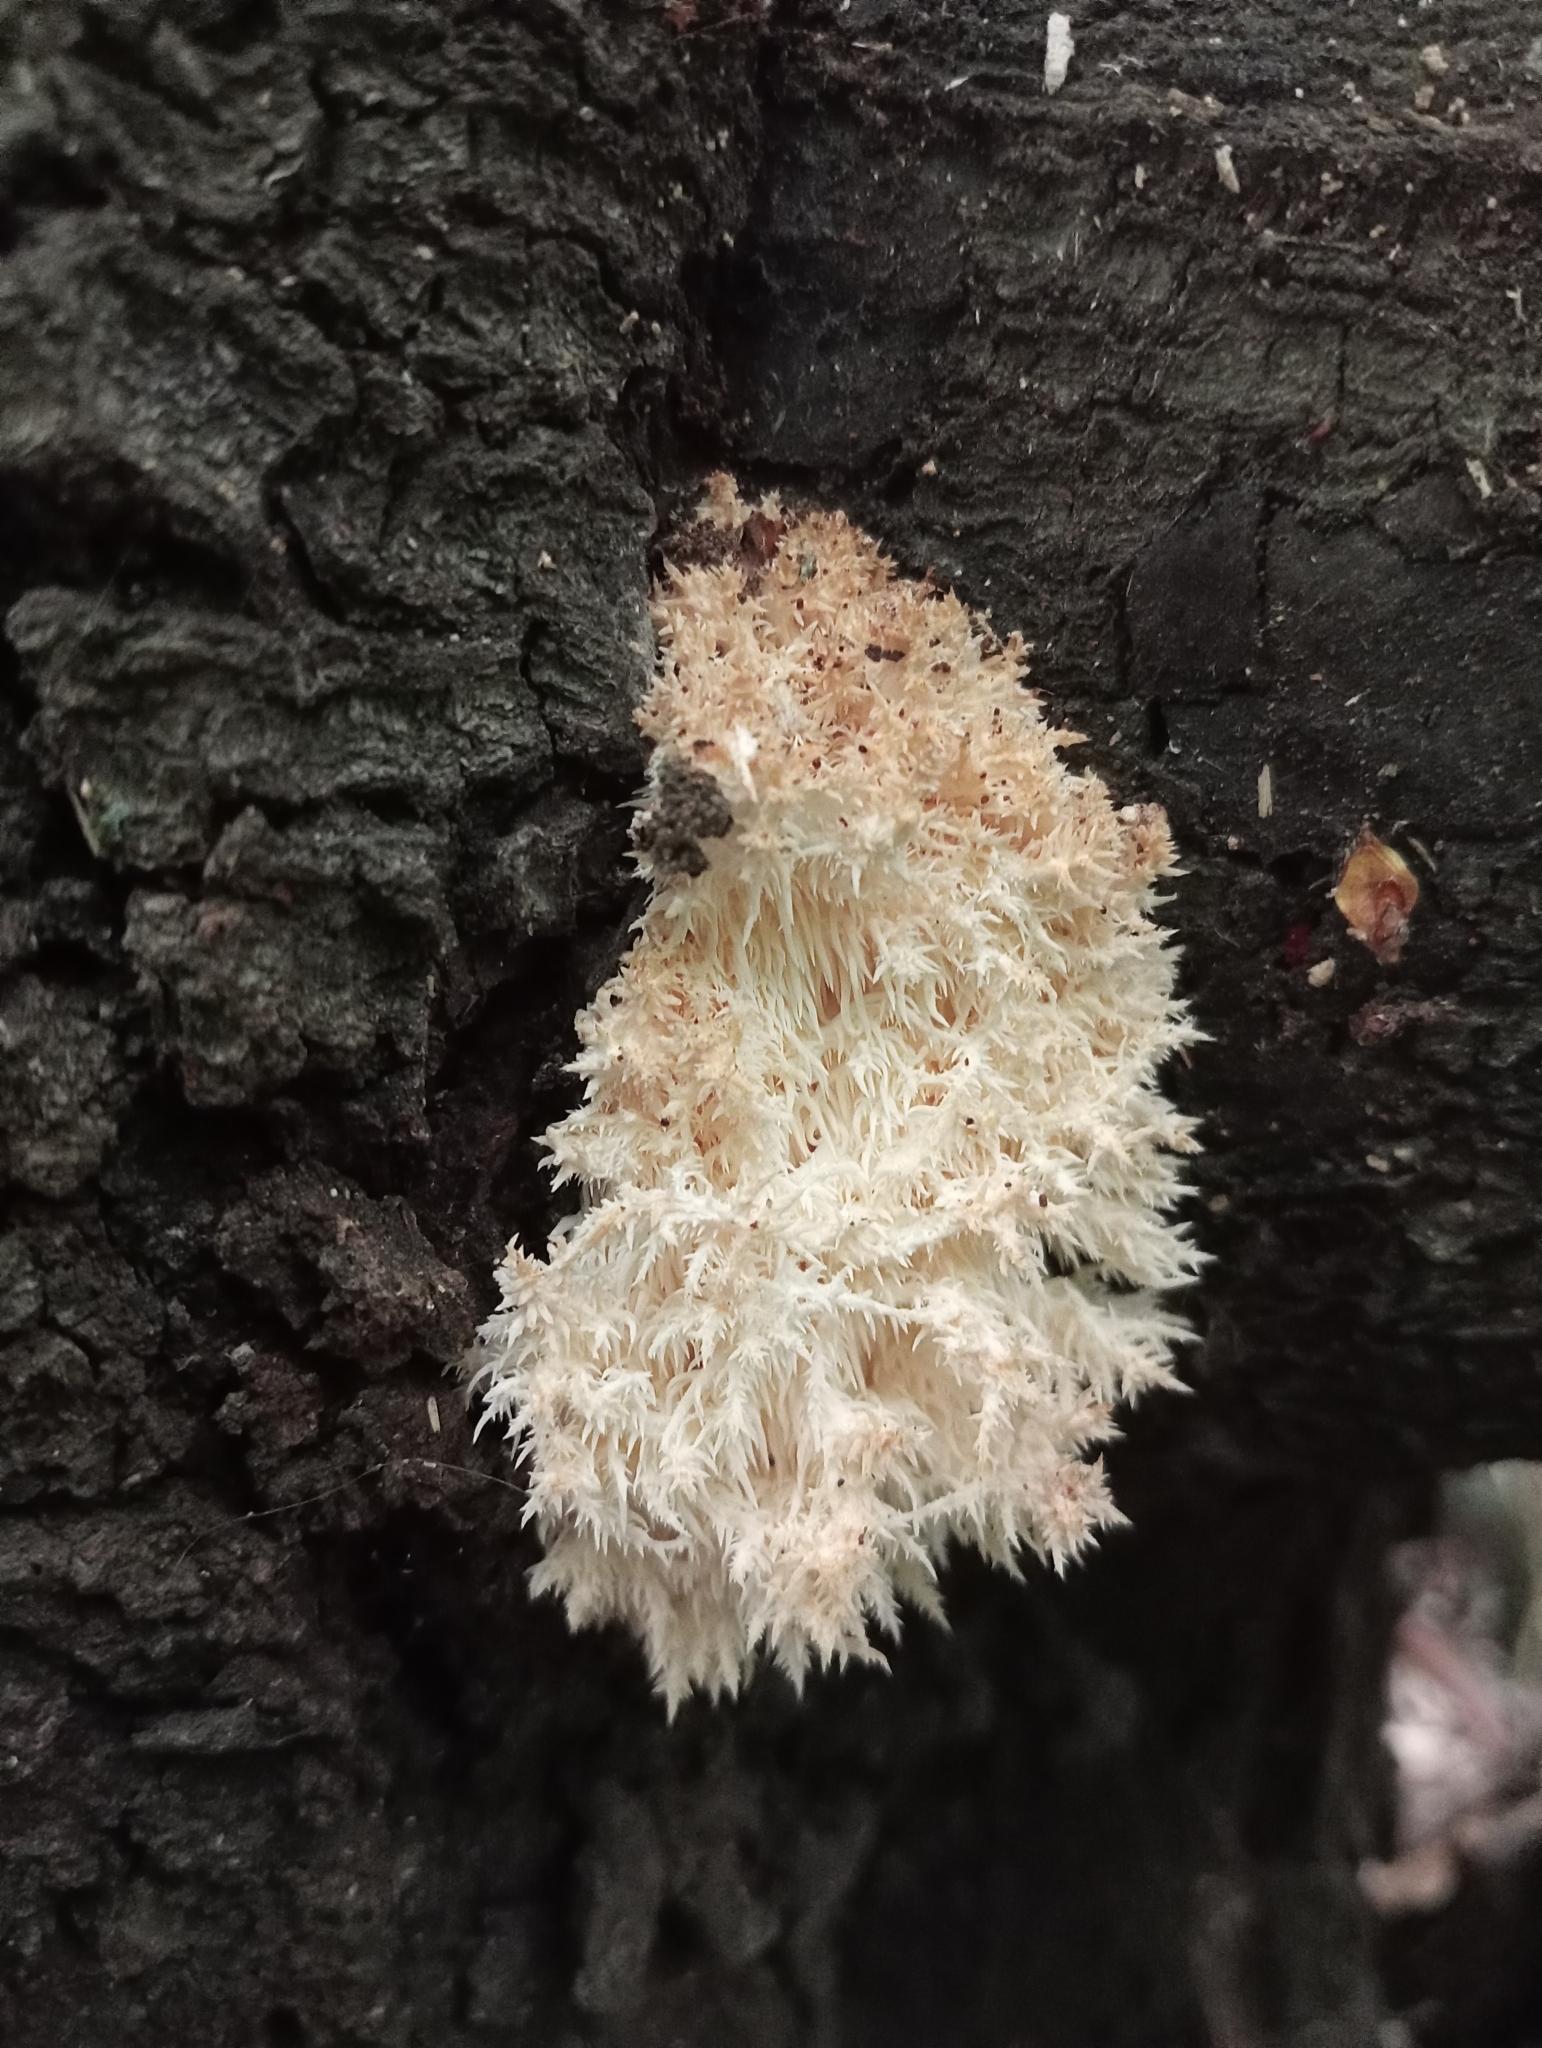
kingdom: Fungi
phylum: Basidiomycota
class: Agaricomycetes
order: Russulales
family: Hericiaceae
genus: Hericium
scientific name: Hericium novae-zealandiae
